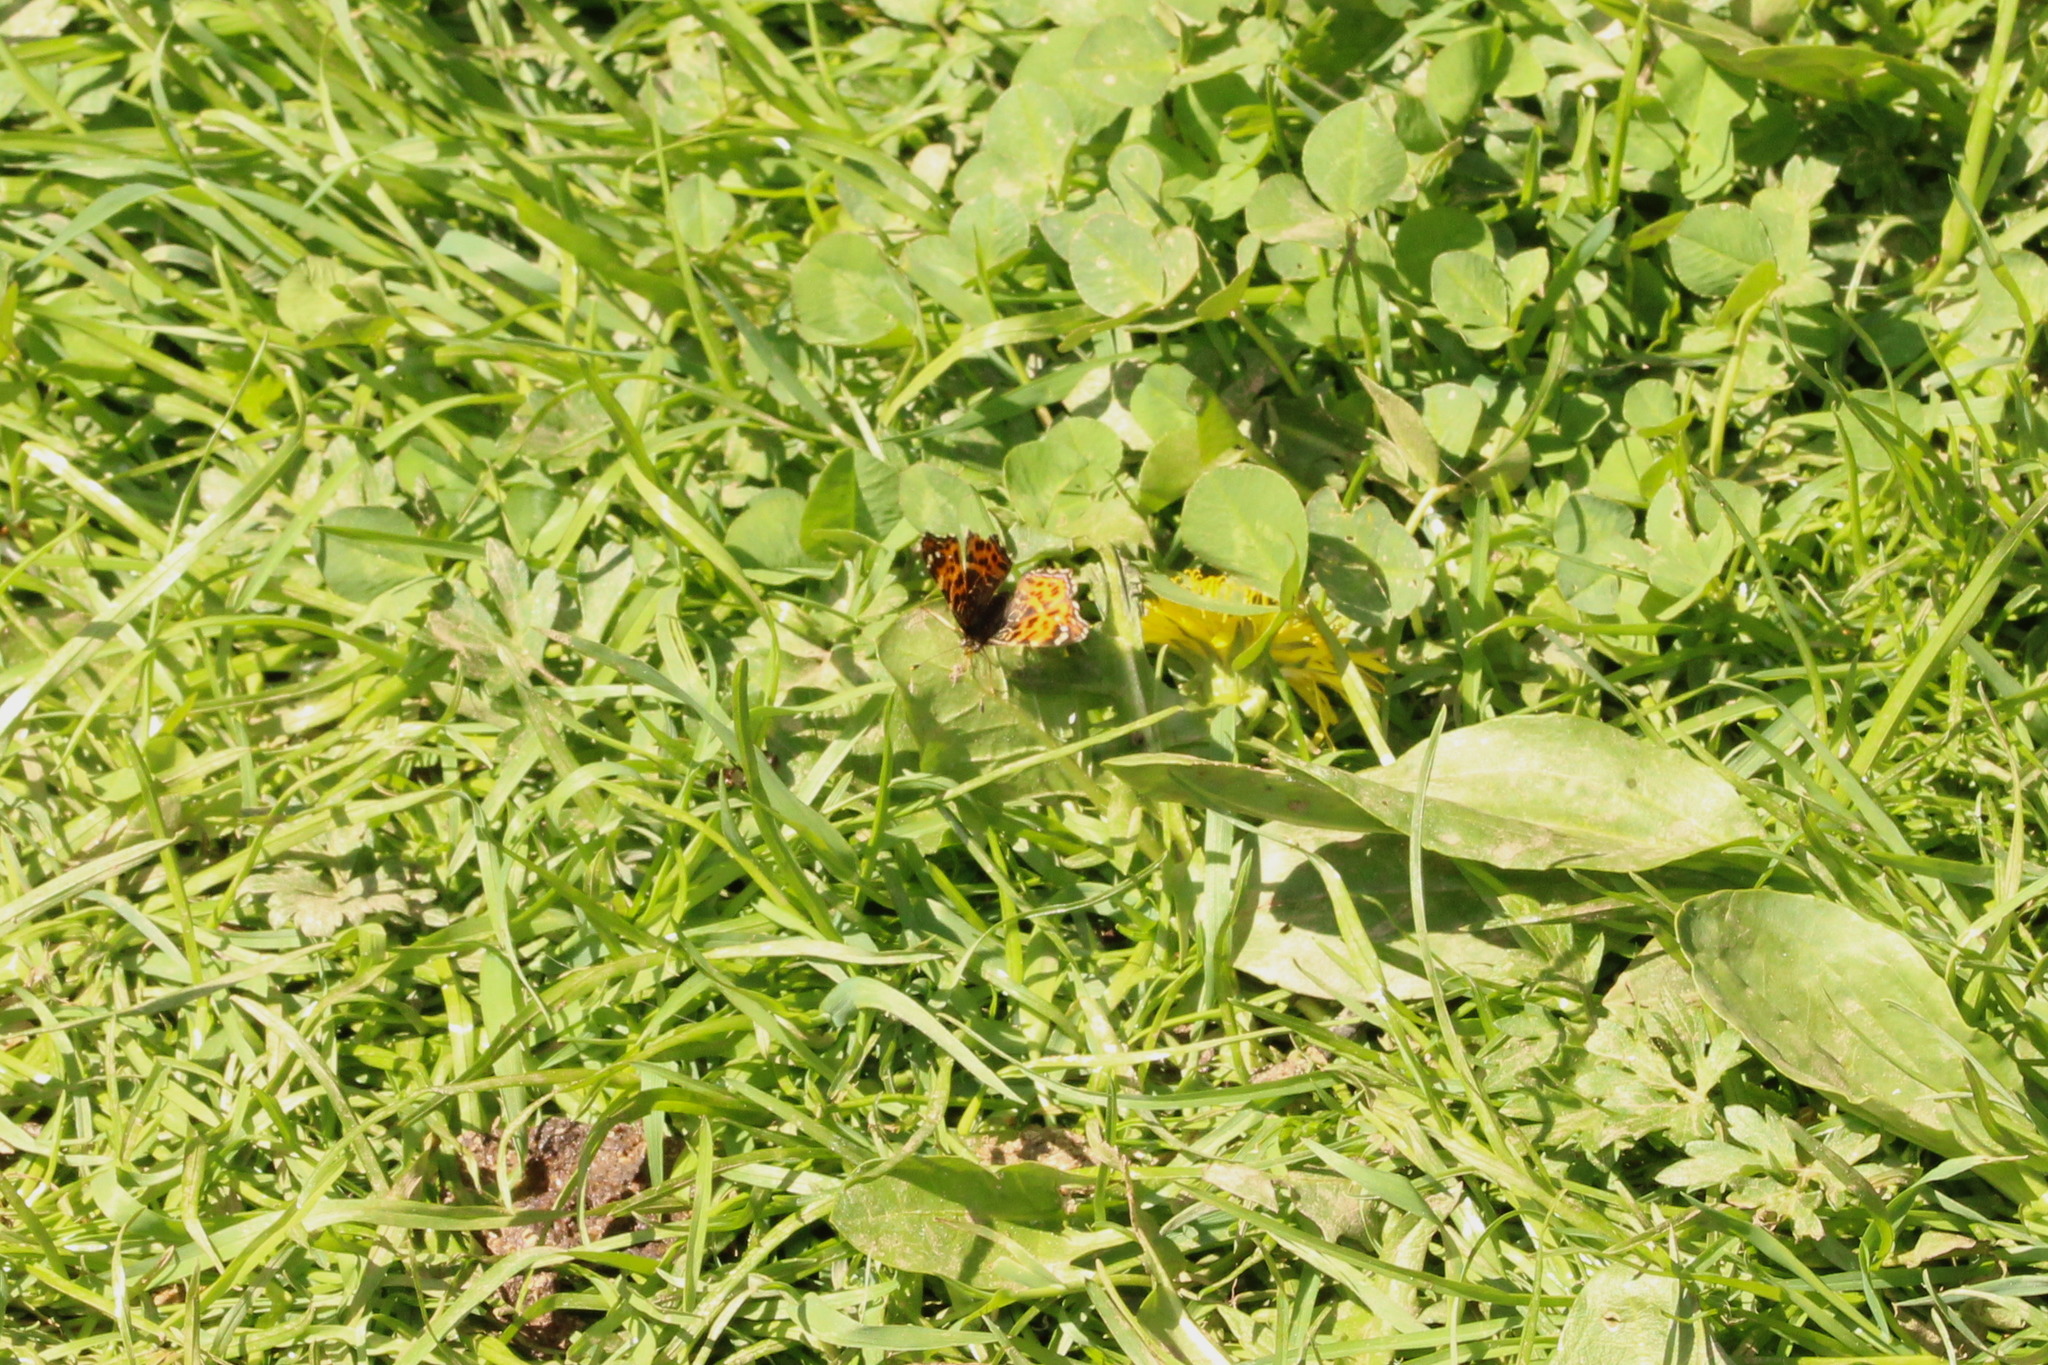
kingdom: Animalia
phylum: Arthropoda
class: Insecta
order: Lepidoptera
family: Nymphalidae
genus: Araschnia
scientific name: Araschnia levana
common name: Map butterfly
